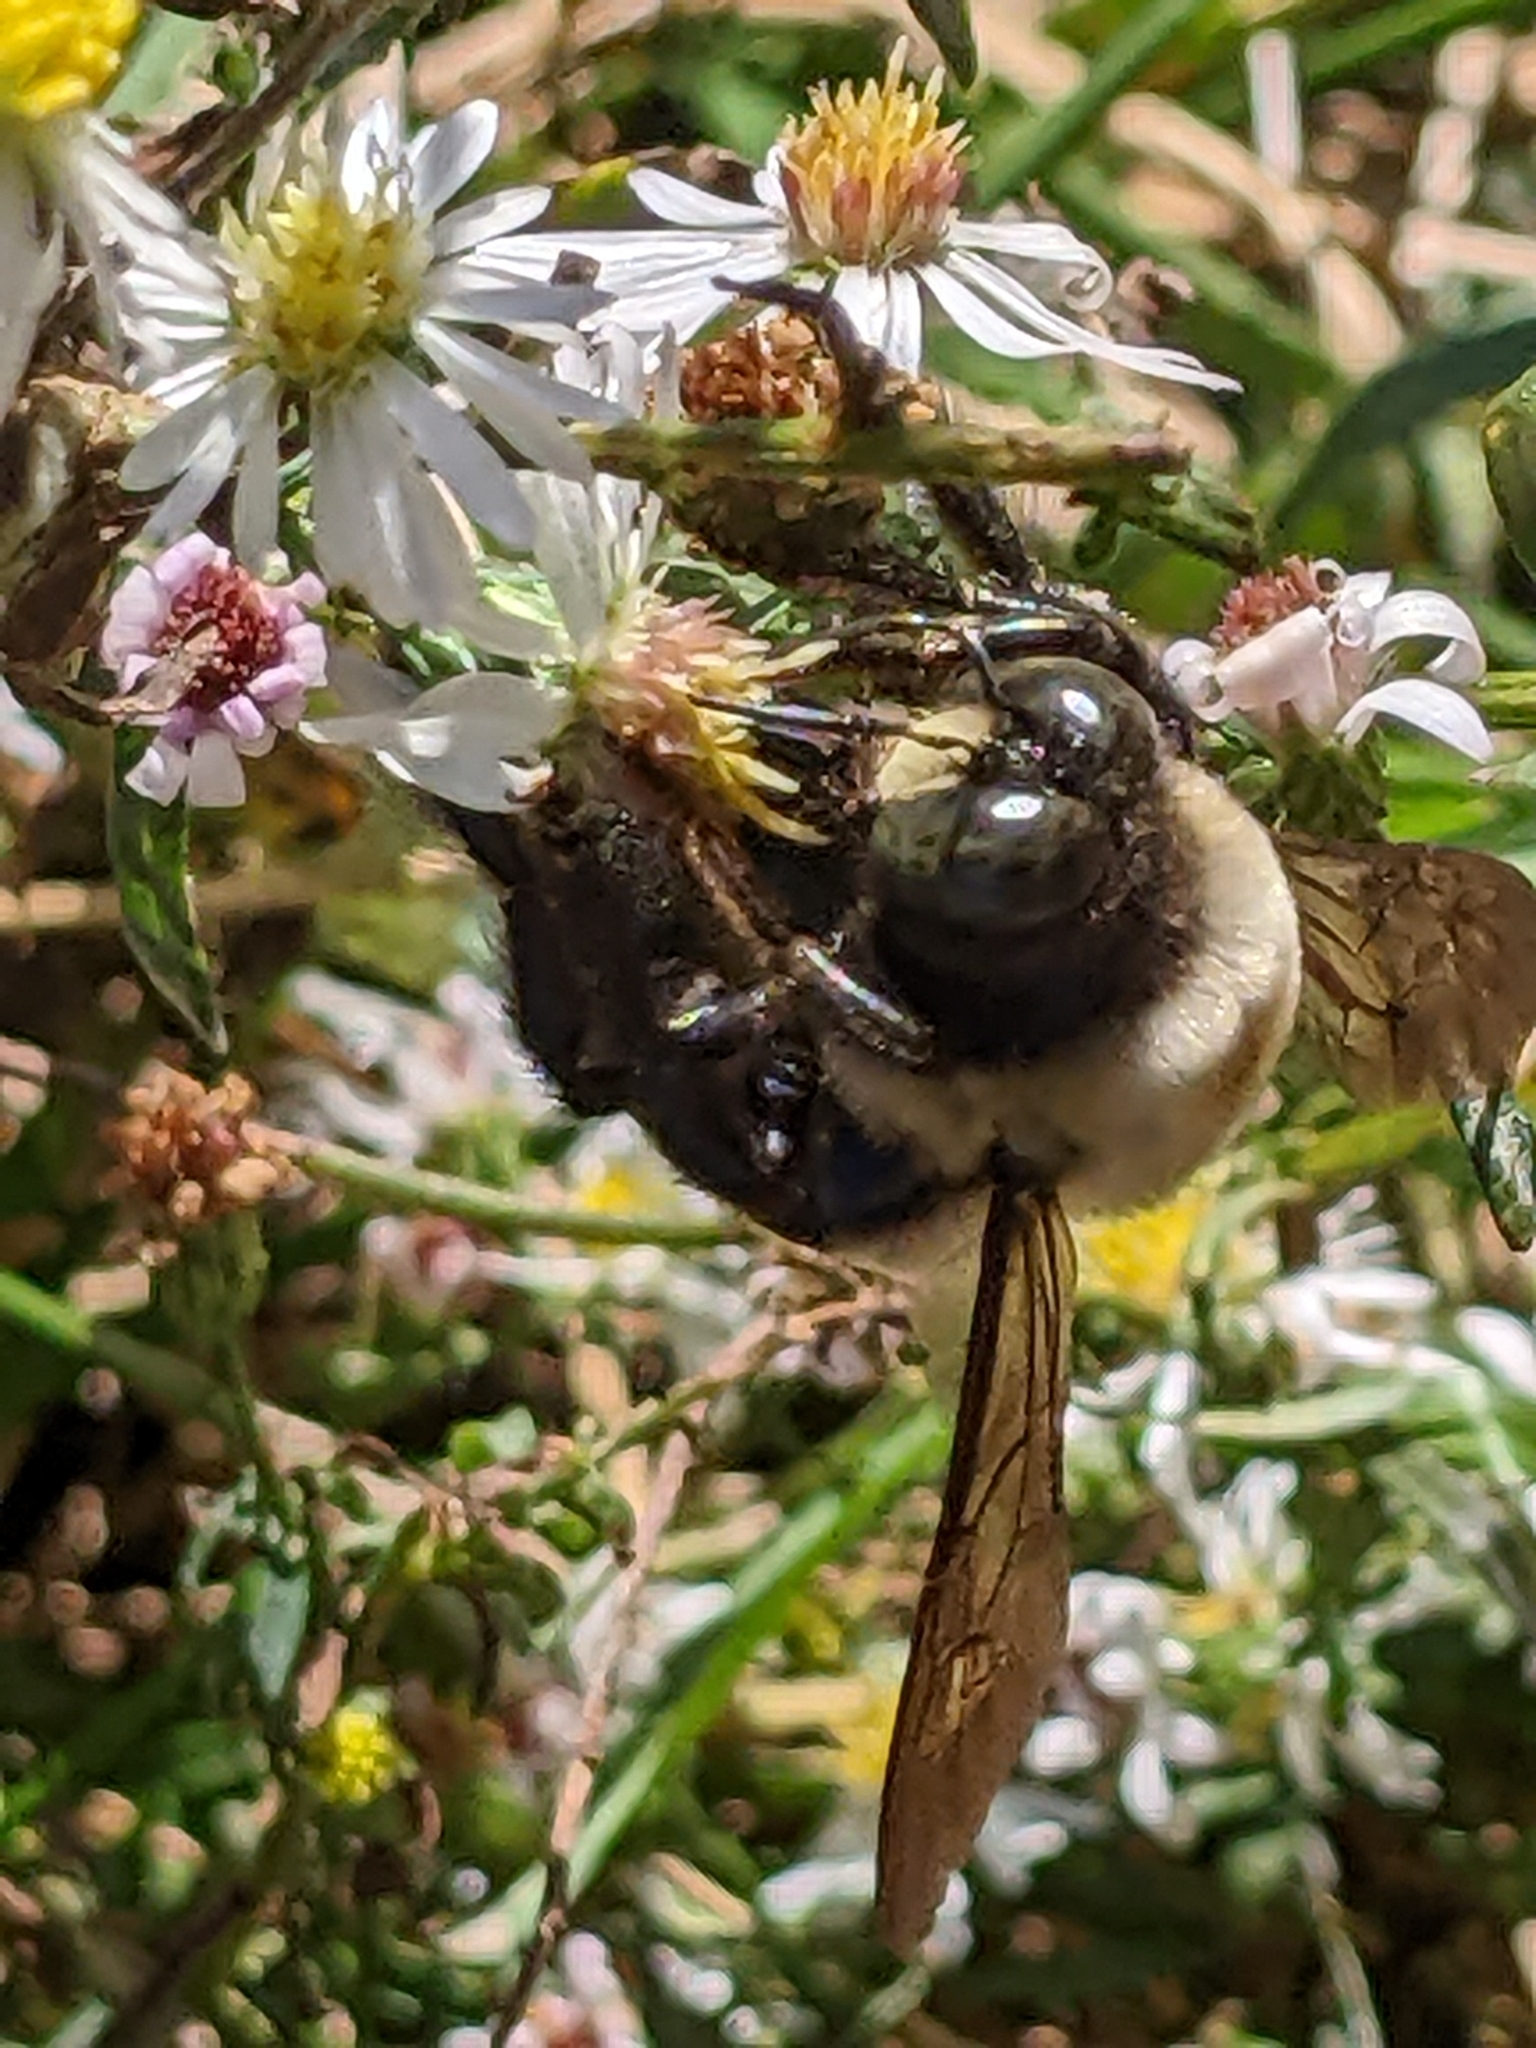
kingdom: Animalia
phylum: Arthropoda
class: Insecta
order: Hymenoptera
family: Apidae
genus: Xylocopa
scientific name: Xylocopa virginica
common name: Carpenter bee
